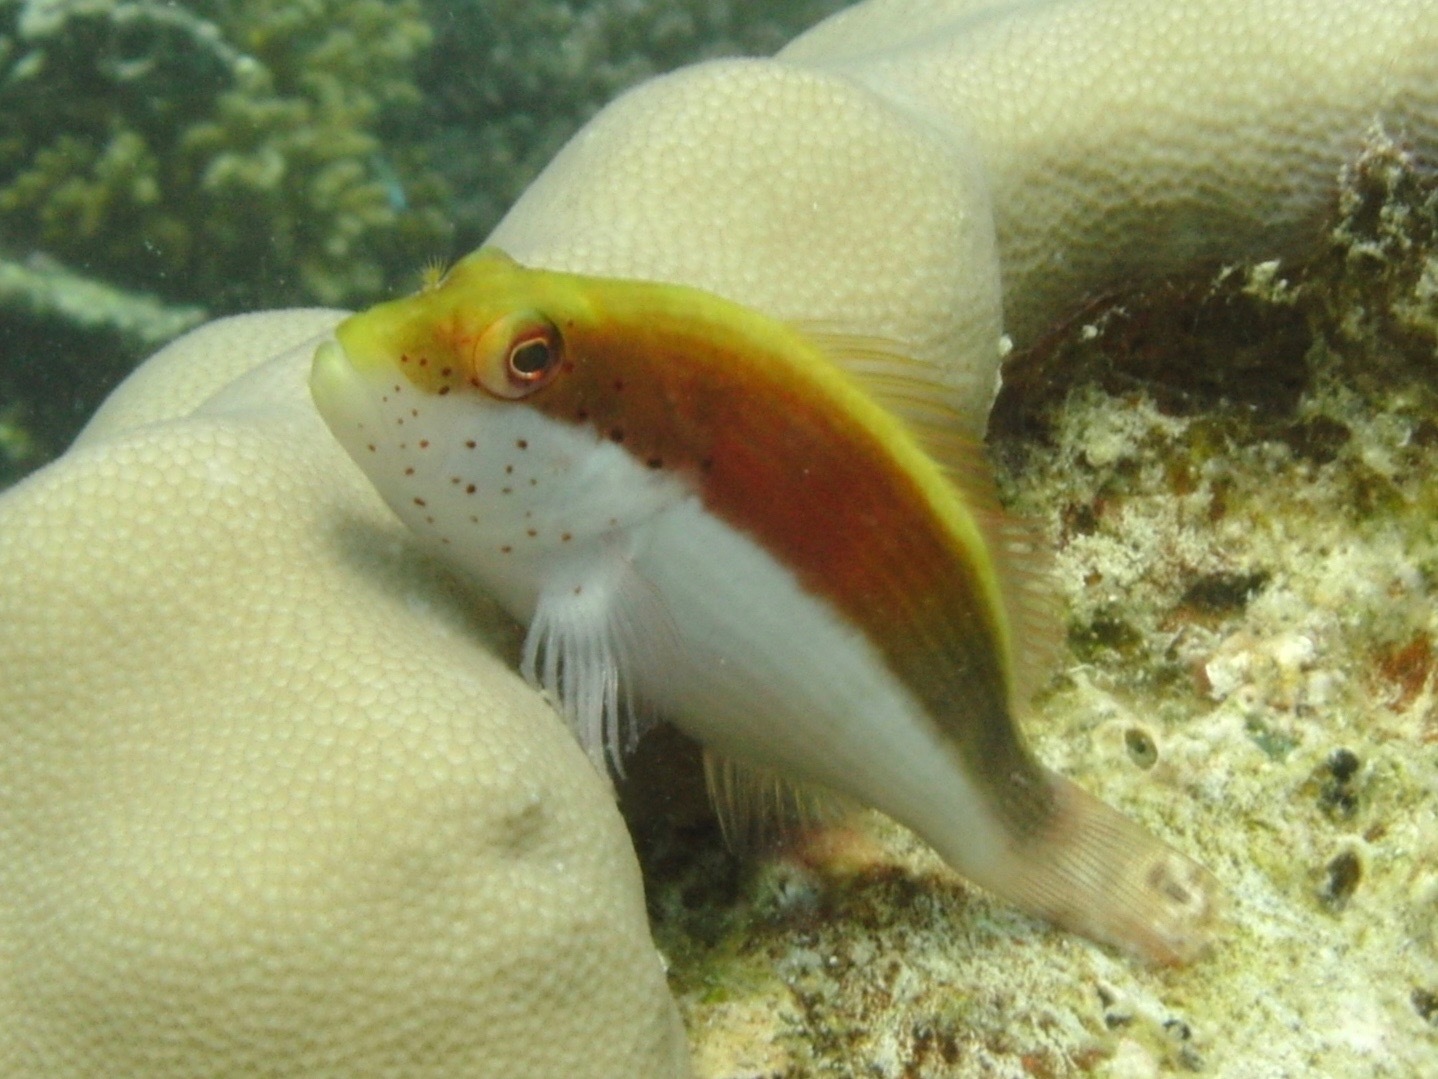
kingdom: Animalia
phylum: Chordata
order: Perciformes
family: Cirrhitidae
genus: Paracirrhites
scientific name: Paracirrhites forsteri
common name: Freckled hawkfish
